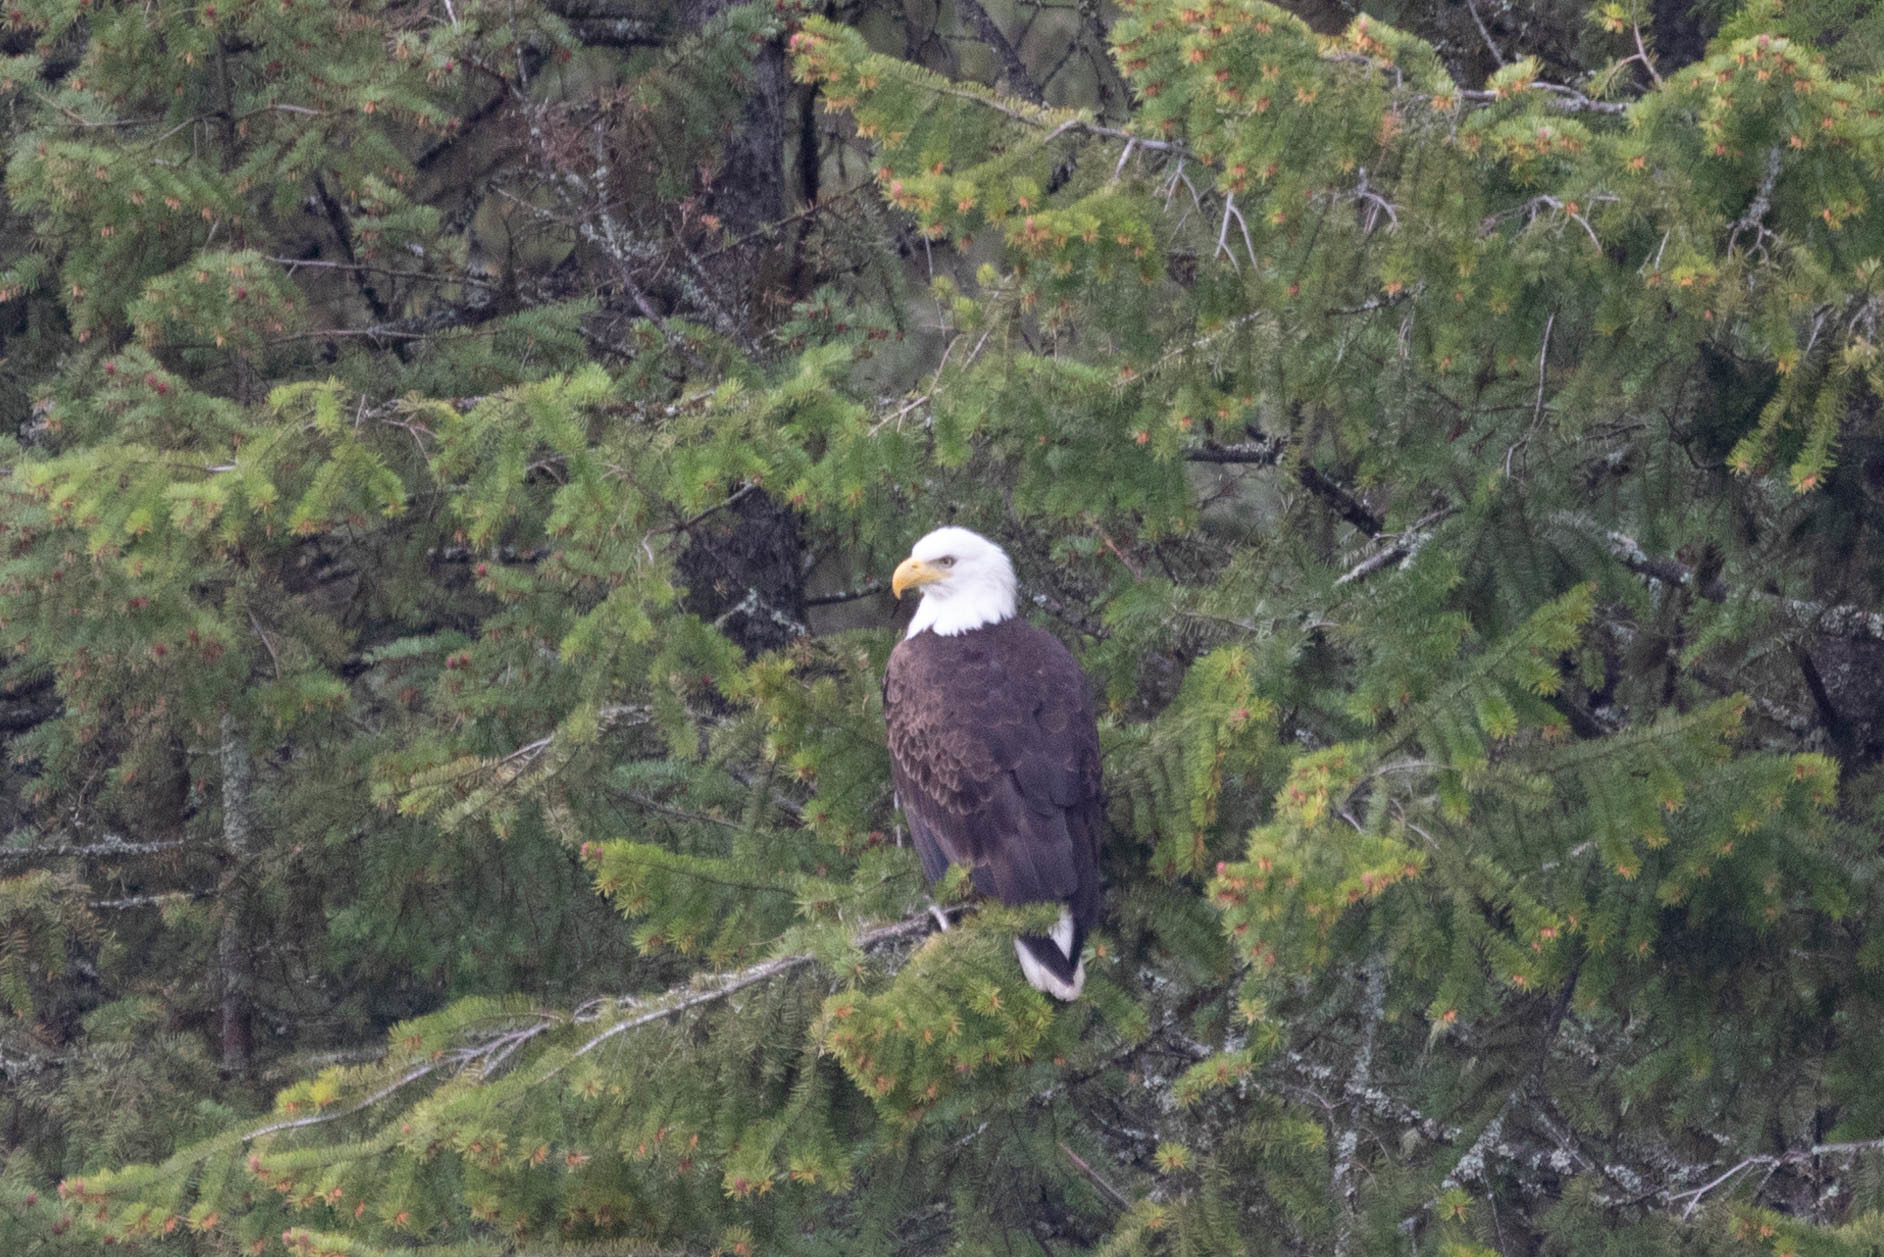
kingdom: Animalia
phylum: Chordata
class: Aves
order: Accipitriformes
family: Accipitridae
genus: Haliaeetus
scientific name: Haliaeetus leucocephalus
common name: Bald eagle
